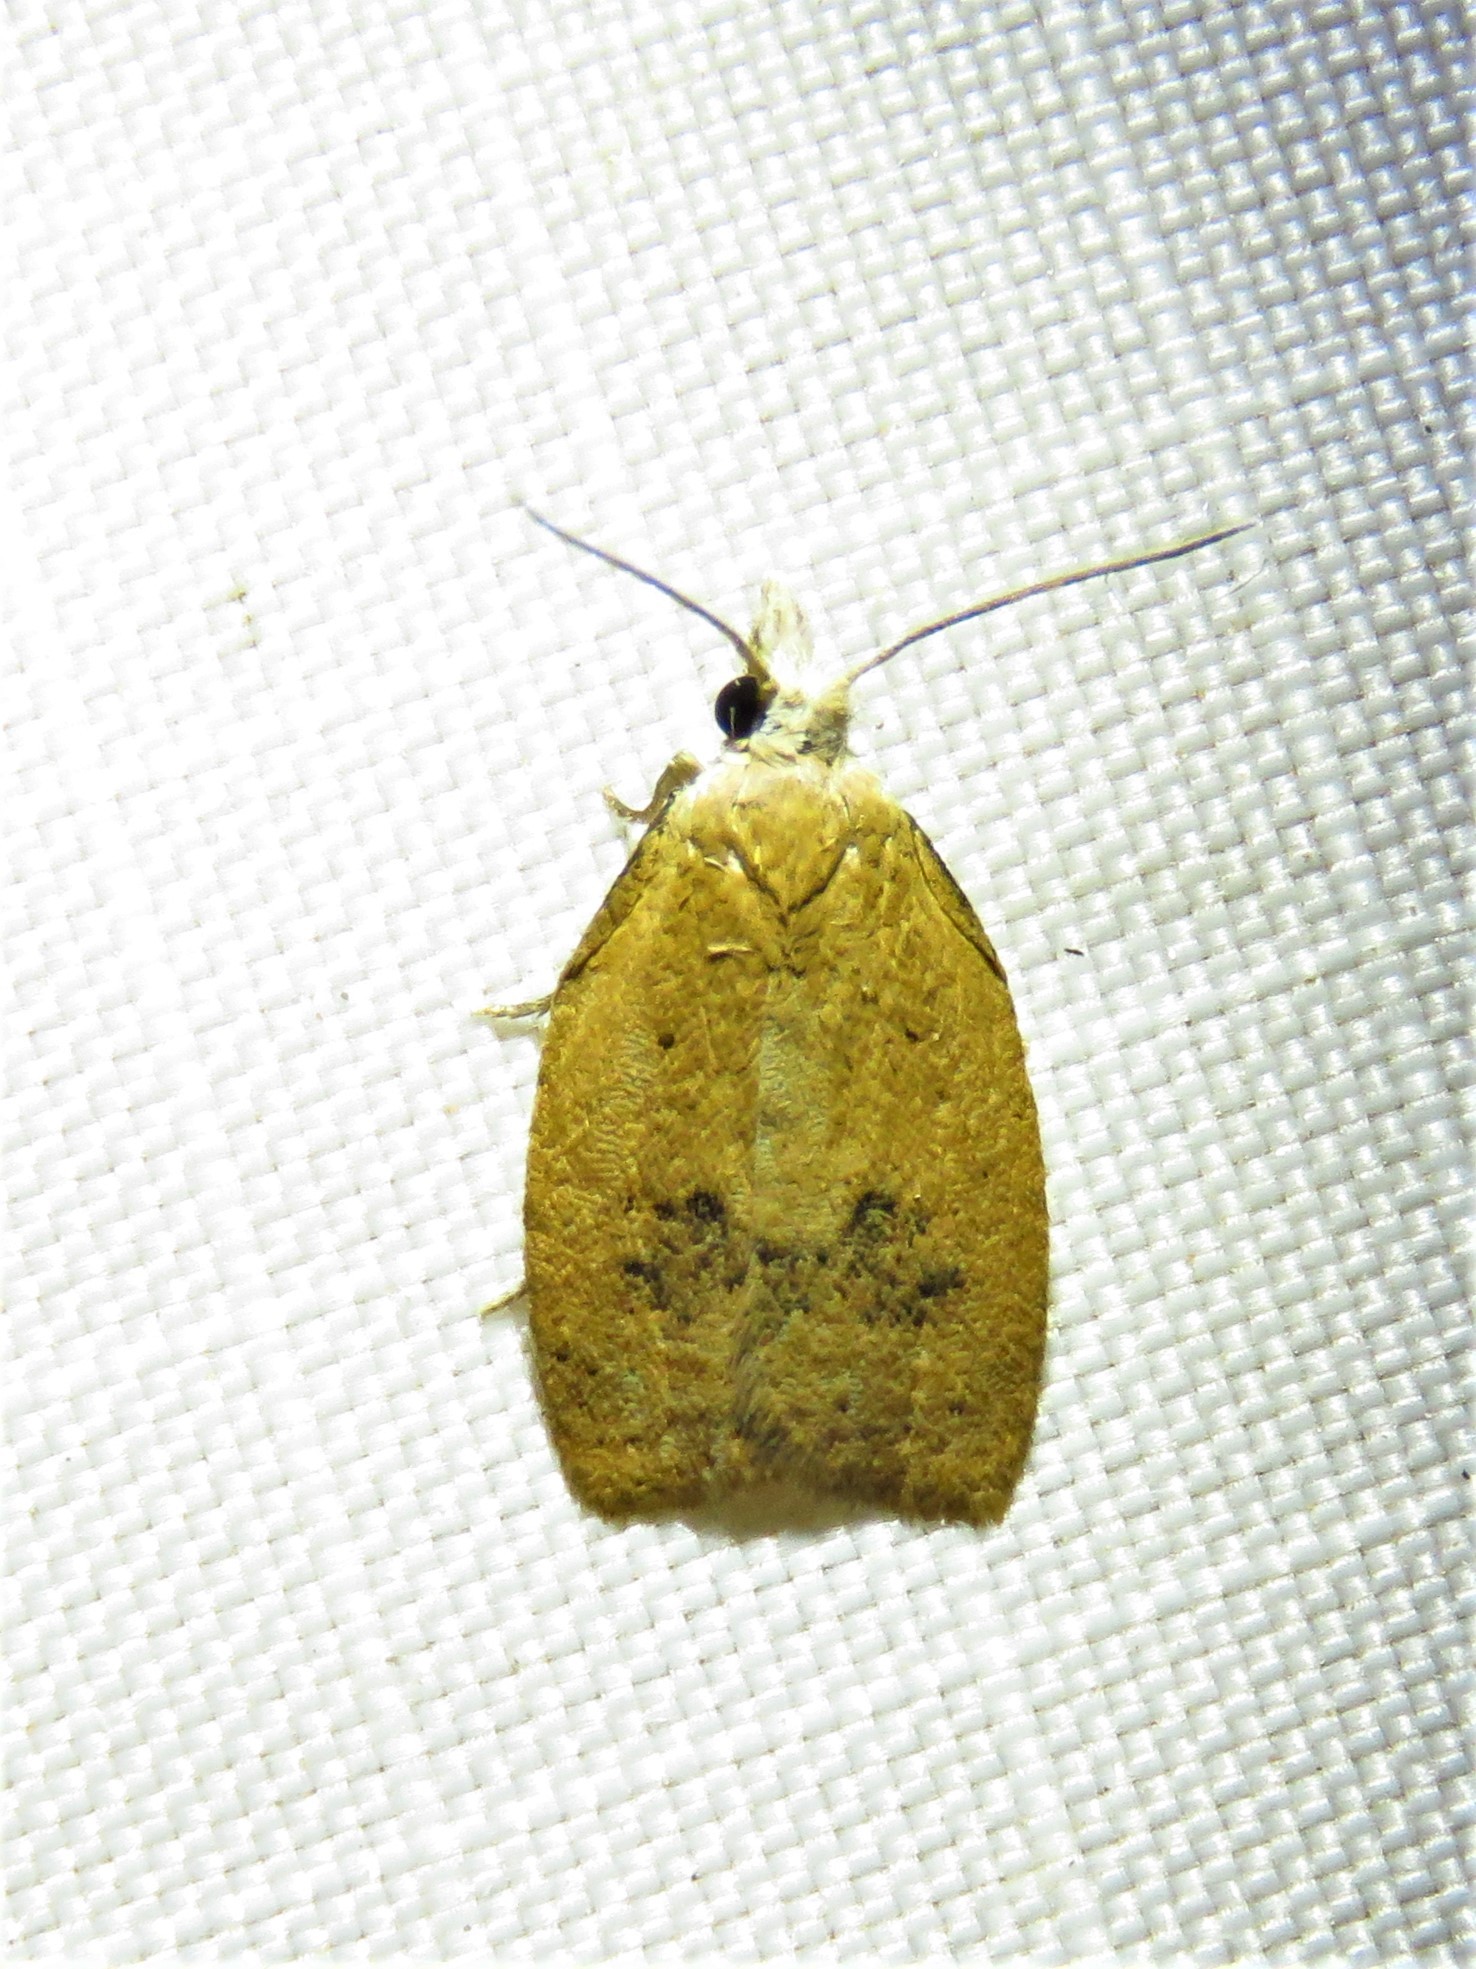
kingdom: Animalia
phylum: Arthropoda
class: Insecta
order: Lepidoptera
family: Tortricidae
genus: Sparganothoides
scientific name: Sparganothoides lentiginosana
